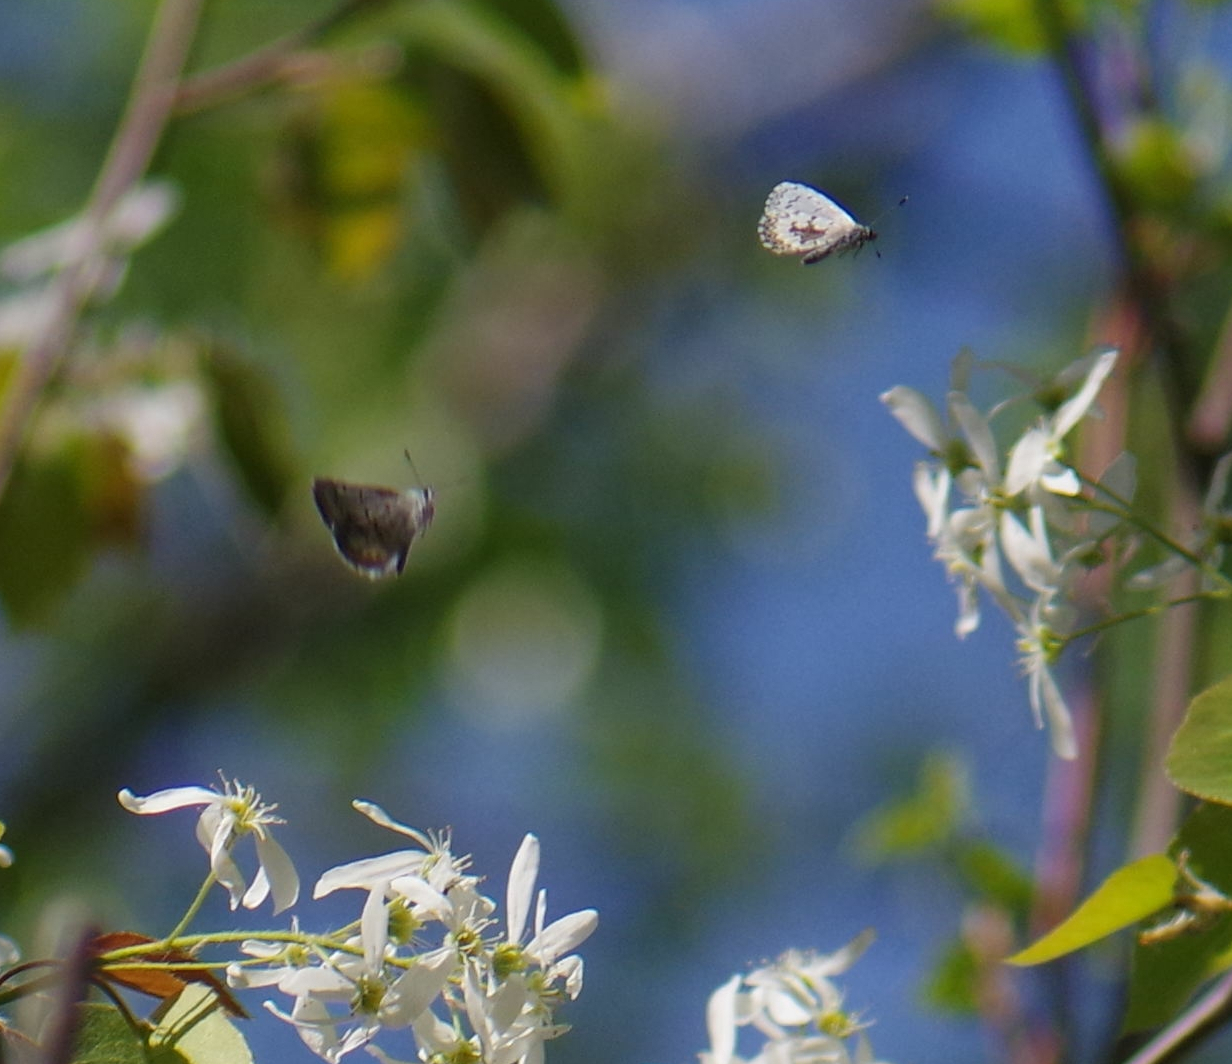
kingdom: Animalia
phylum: Arthropoda
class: Insecta
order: Lepidoptera
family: Lycaenidae
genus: Celastrina
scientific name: Celastrina lucia
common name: Lucia azure
